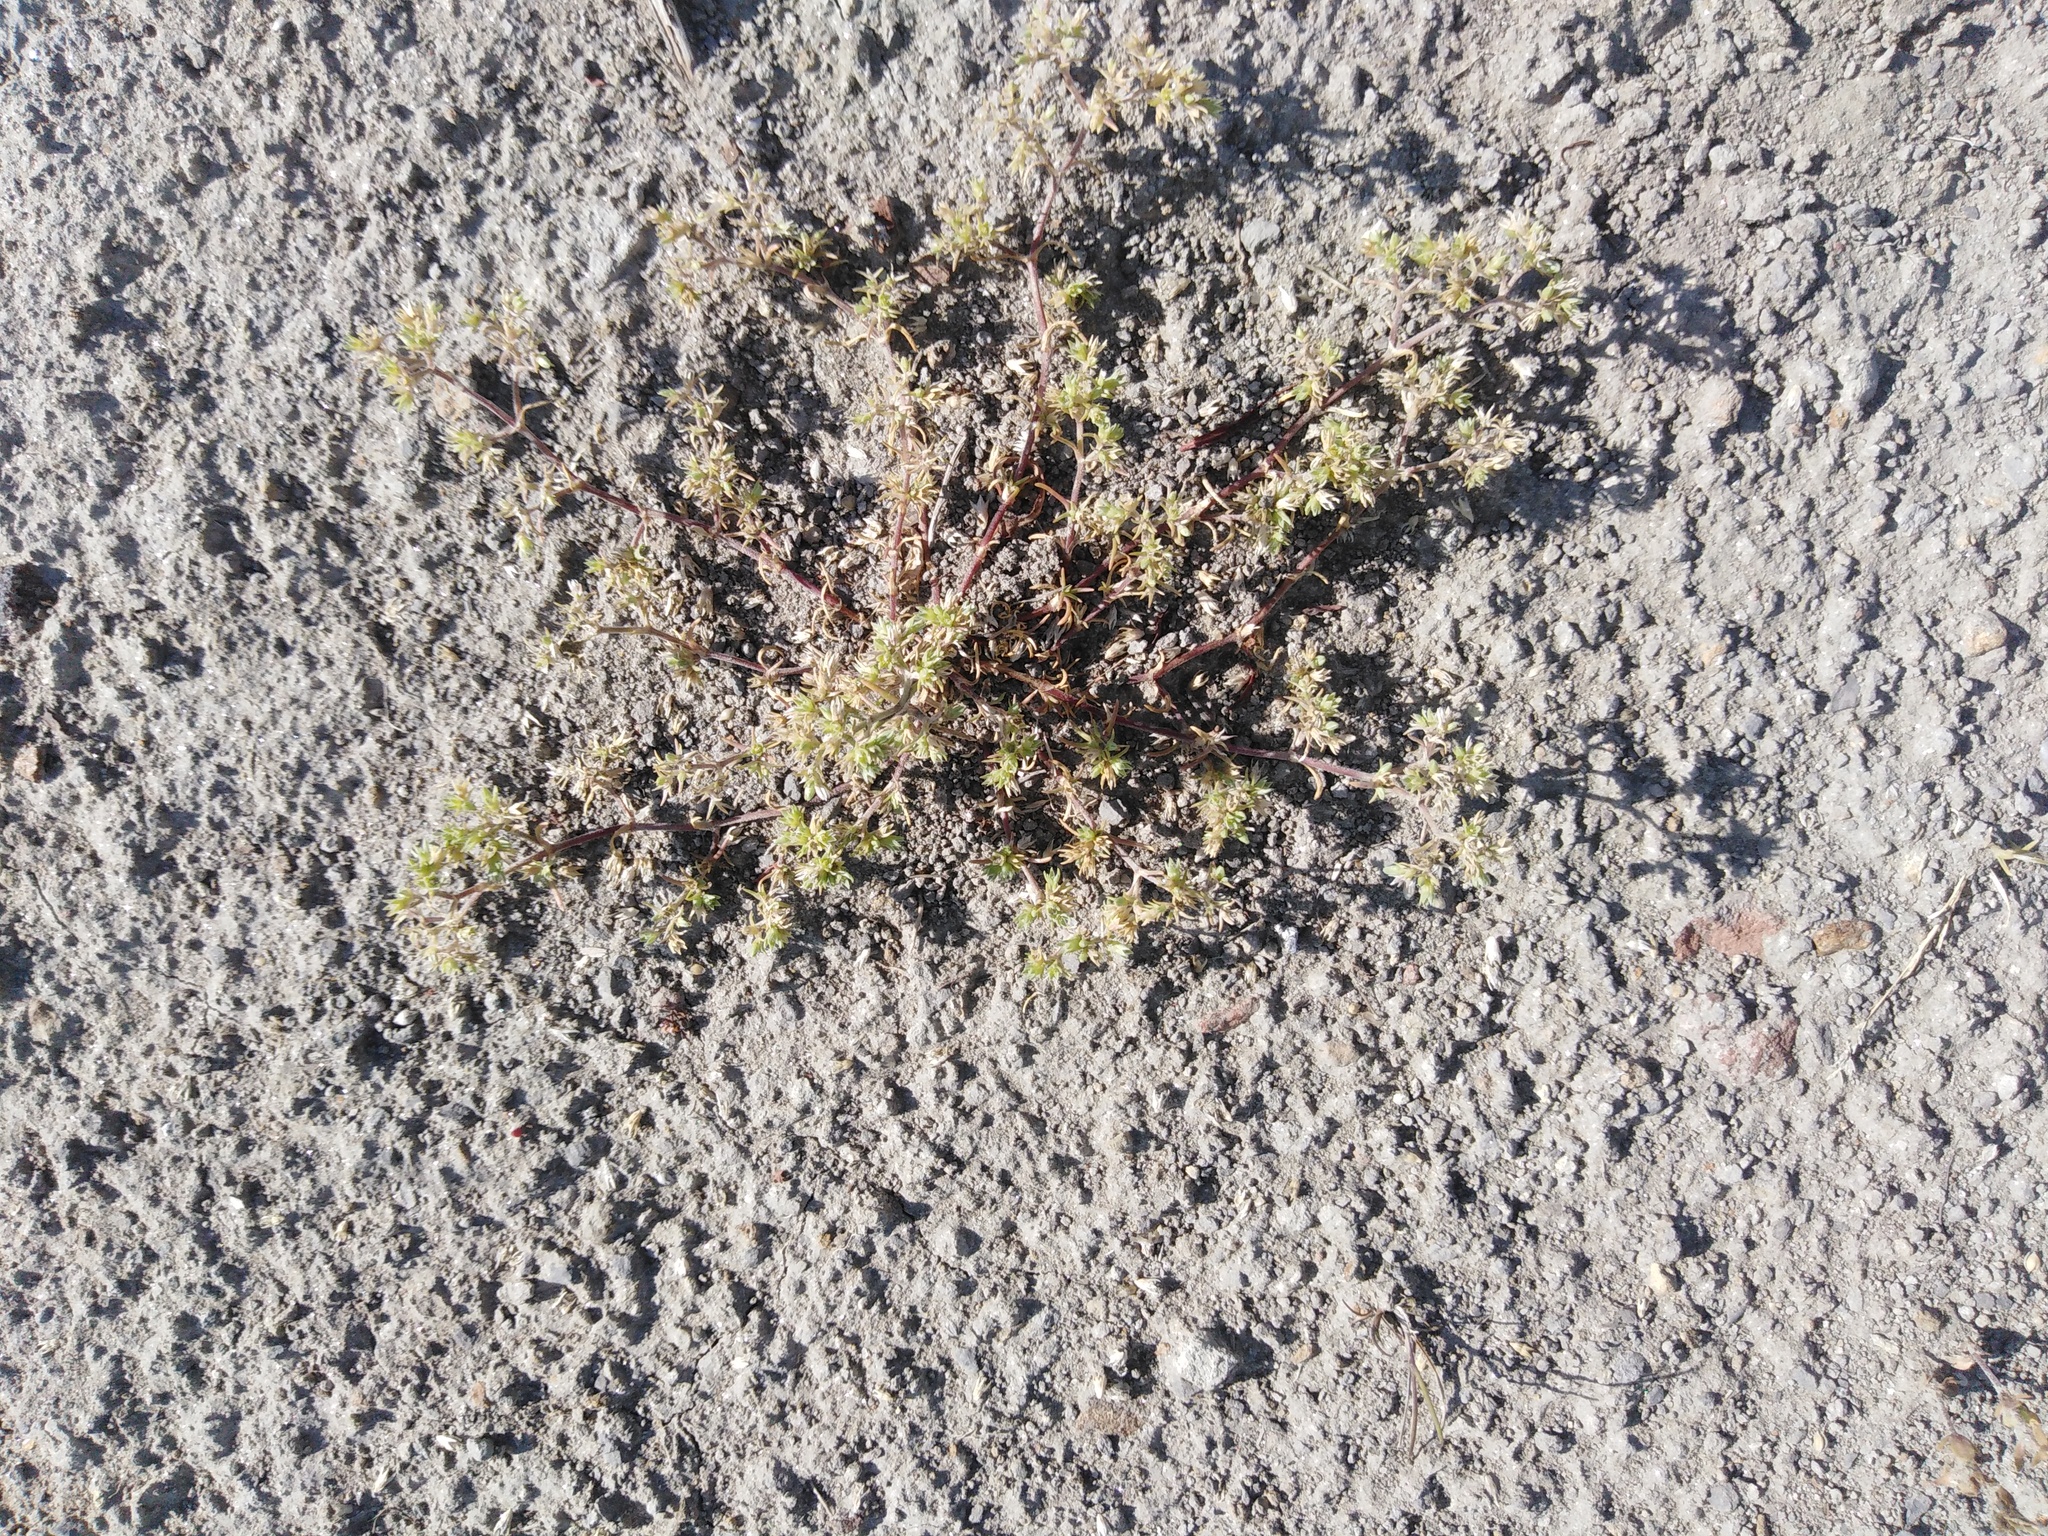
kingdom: Plantae
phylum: Tracheophyta
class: Magnoliopsida
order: Caryophyllales
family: Caryophyllaceae
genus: Scleranthus
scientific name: Scleranthus annuus
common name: Annual knawel
